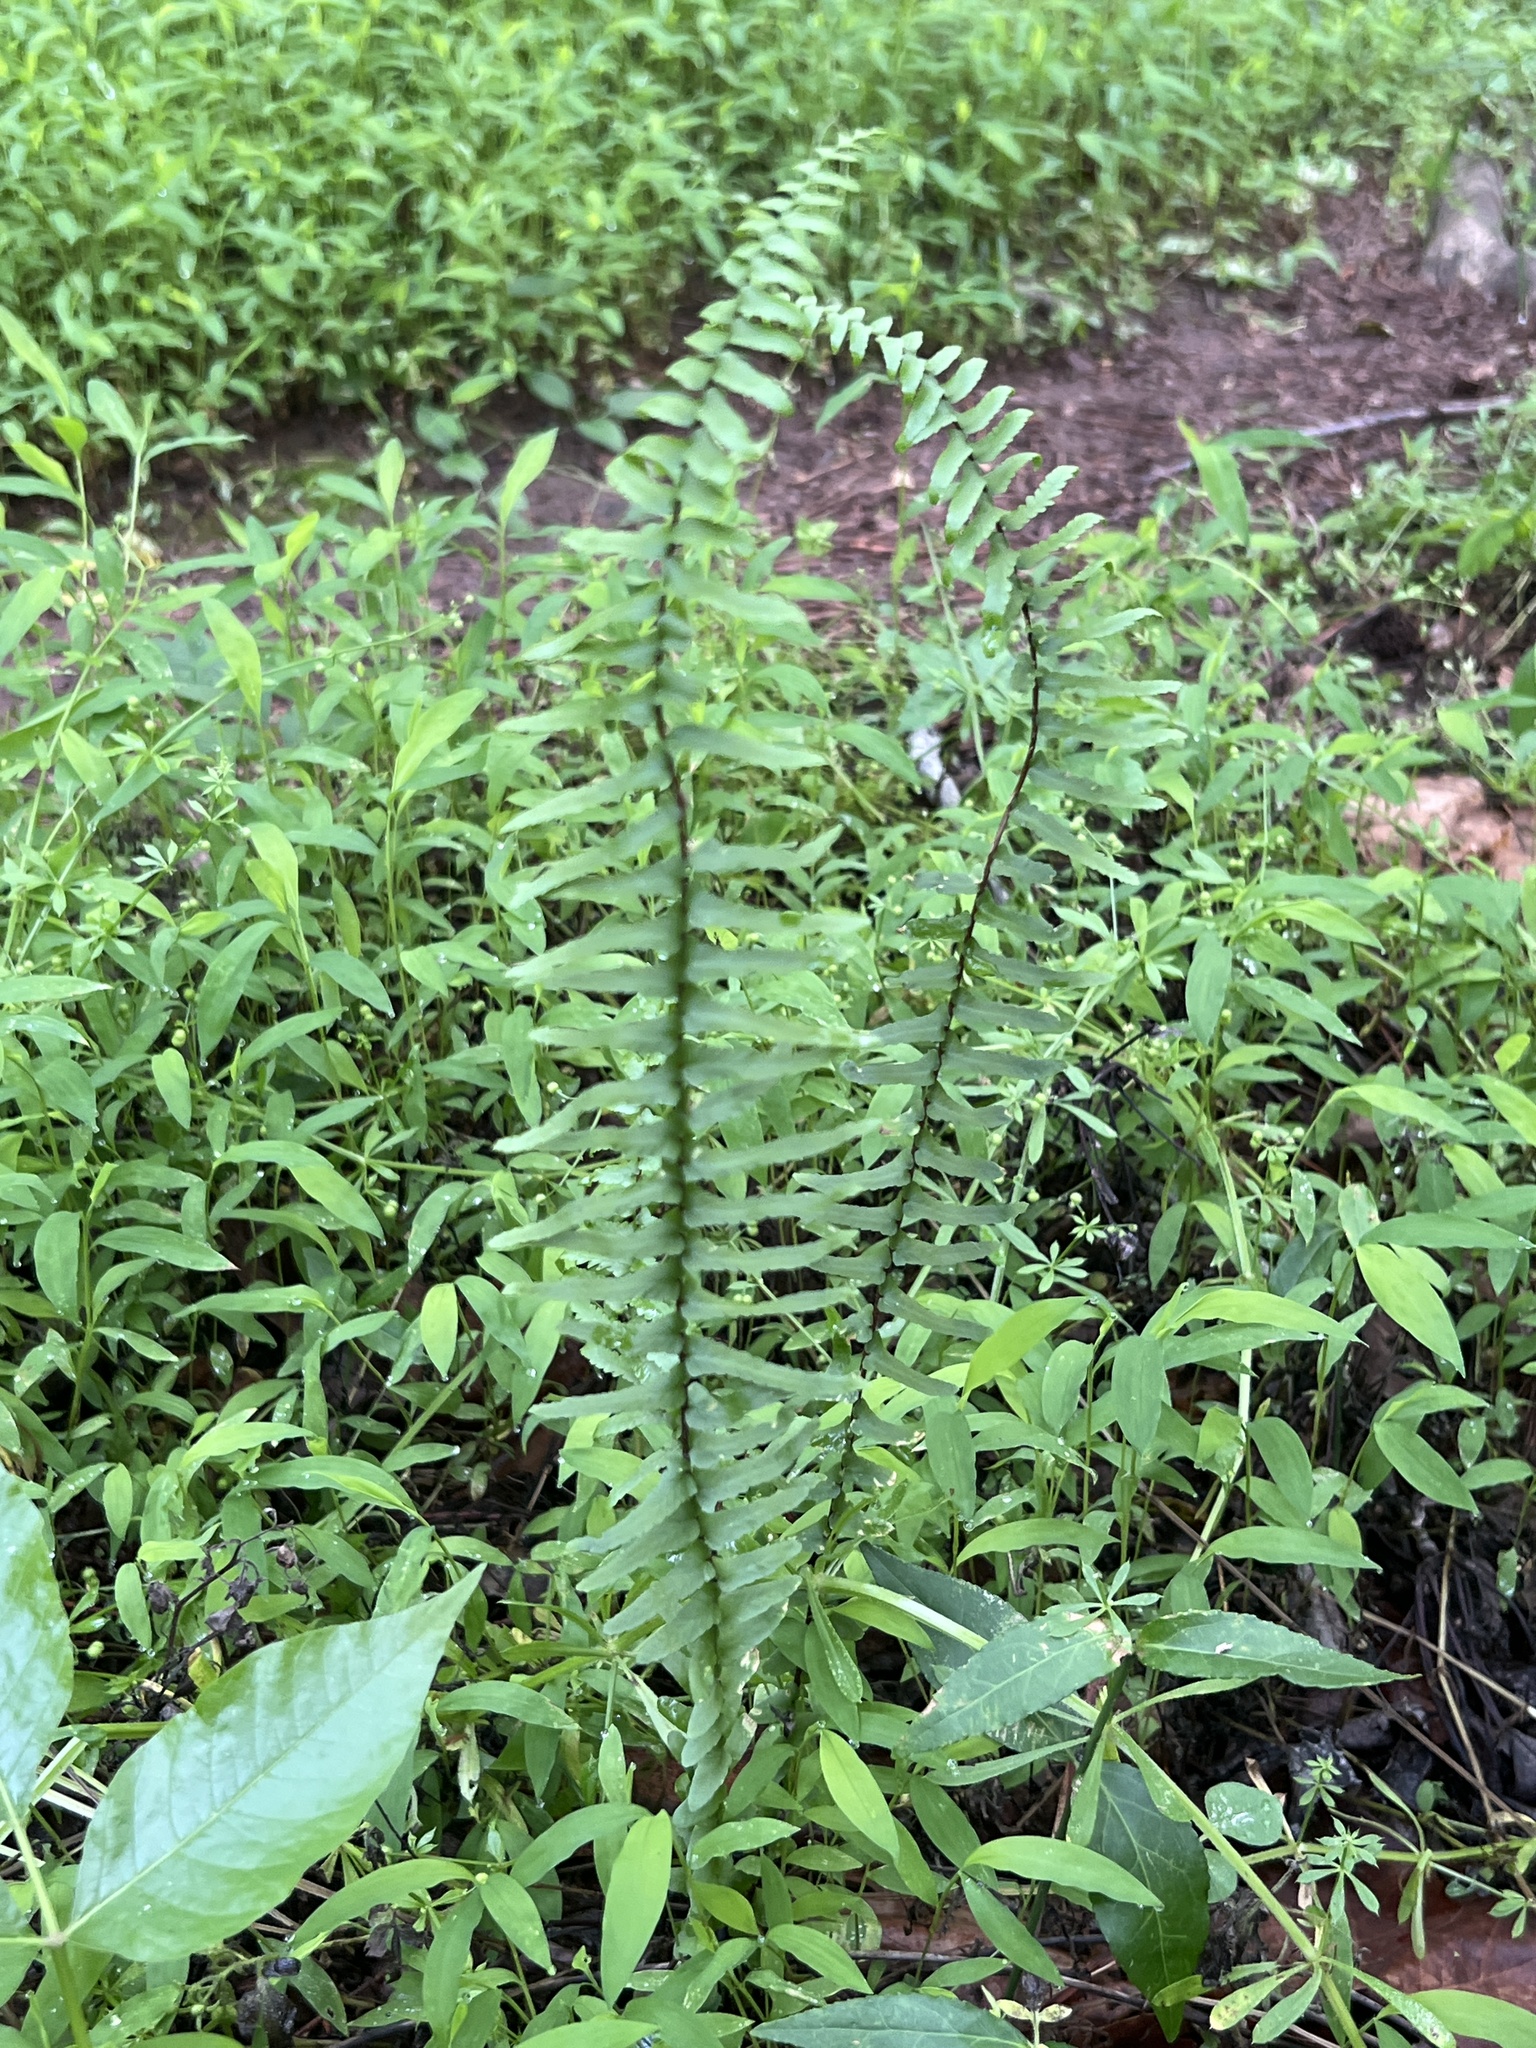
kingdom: Plantae
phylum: Tracheophyta
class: Polypodiopsida
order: Polypodiales
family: Aspleniaceae
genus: Asplenium
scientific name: Asplenium platyneuron
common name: Ebony spleenwort
